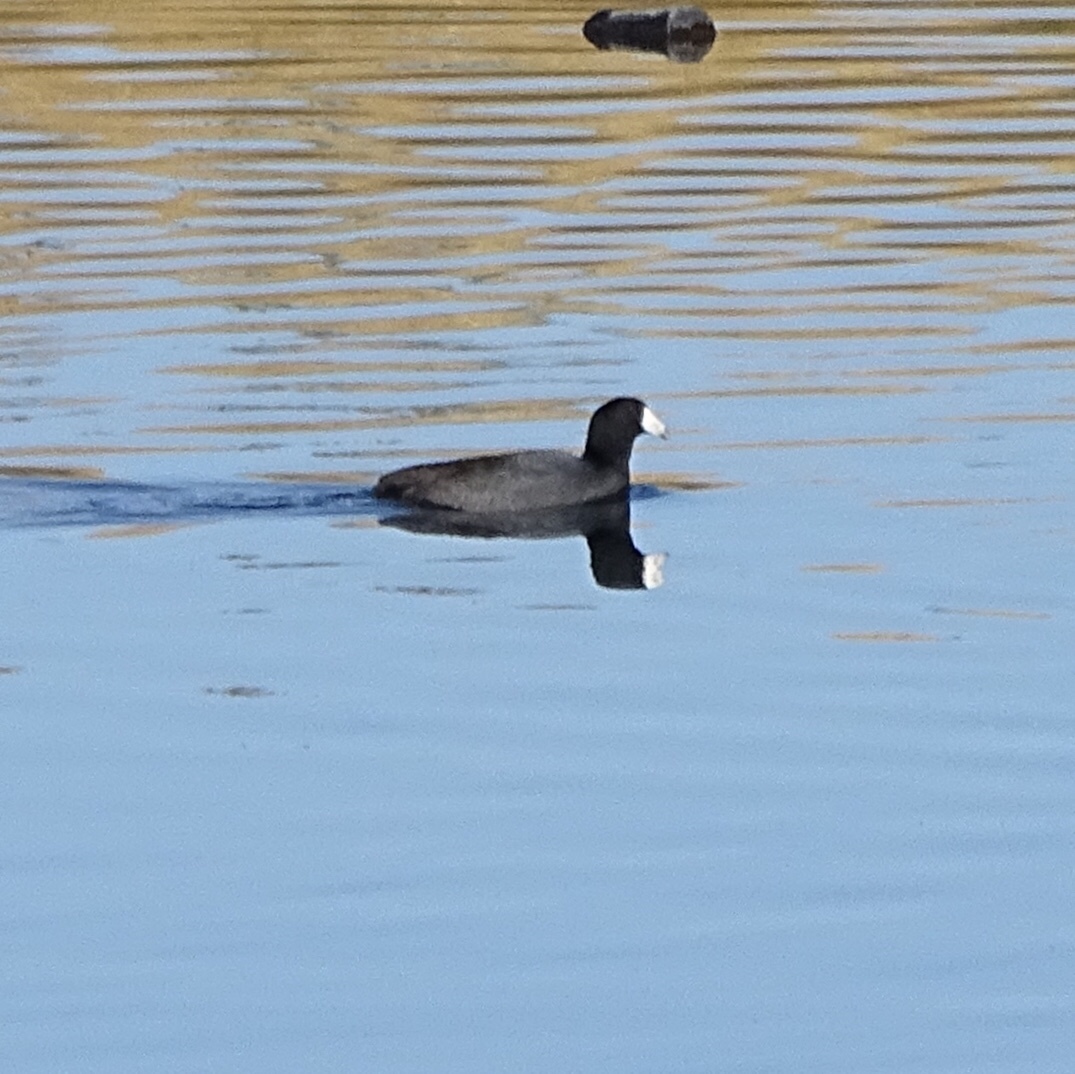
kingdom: Animalia
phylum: Chordata
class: Aves
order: Gruiformes
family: Rallidae
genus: Fulica
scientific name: Fulica americana
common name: American coot
